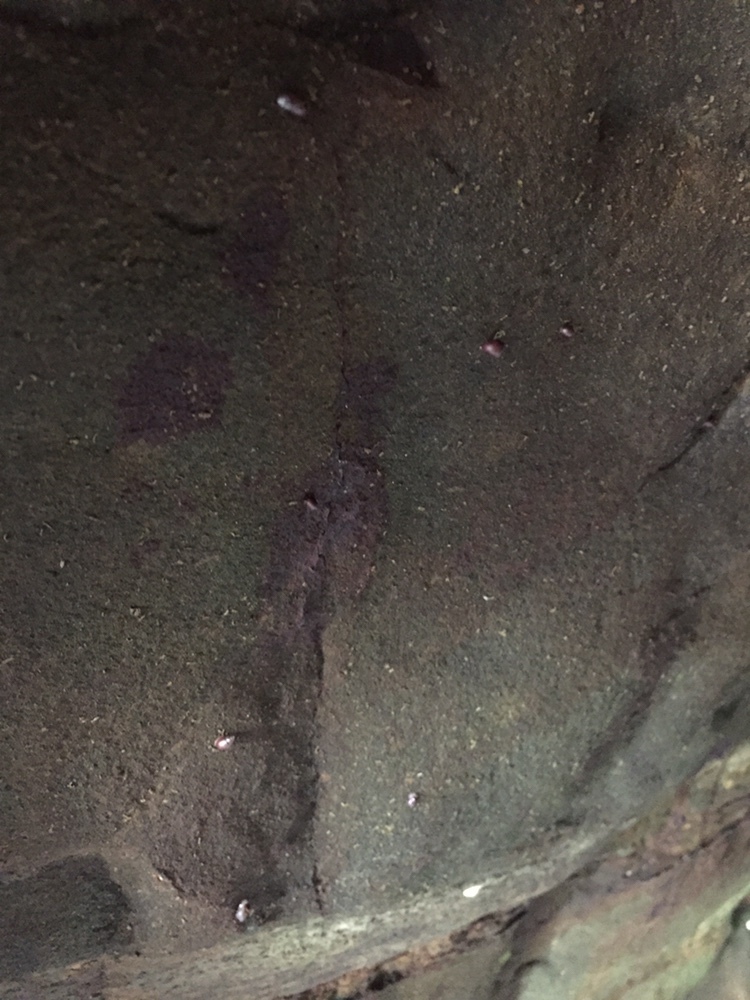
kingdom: Animalia
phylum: Mollusca
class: Gastropoda
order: Ellobiida
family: Ellobiidae
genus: Marinula
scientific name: Marinula filholi
